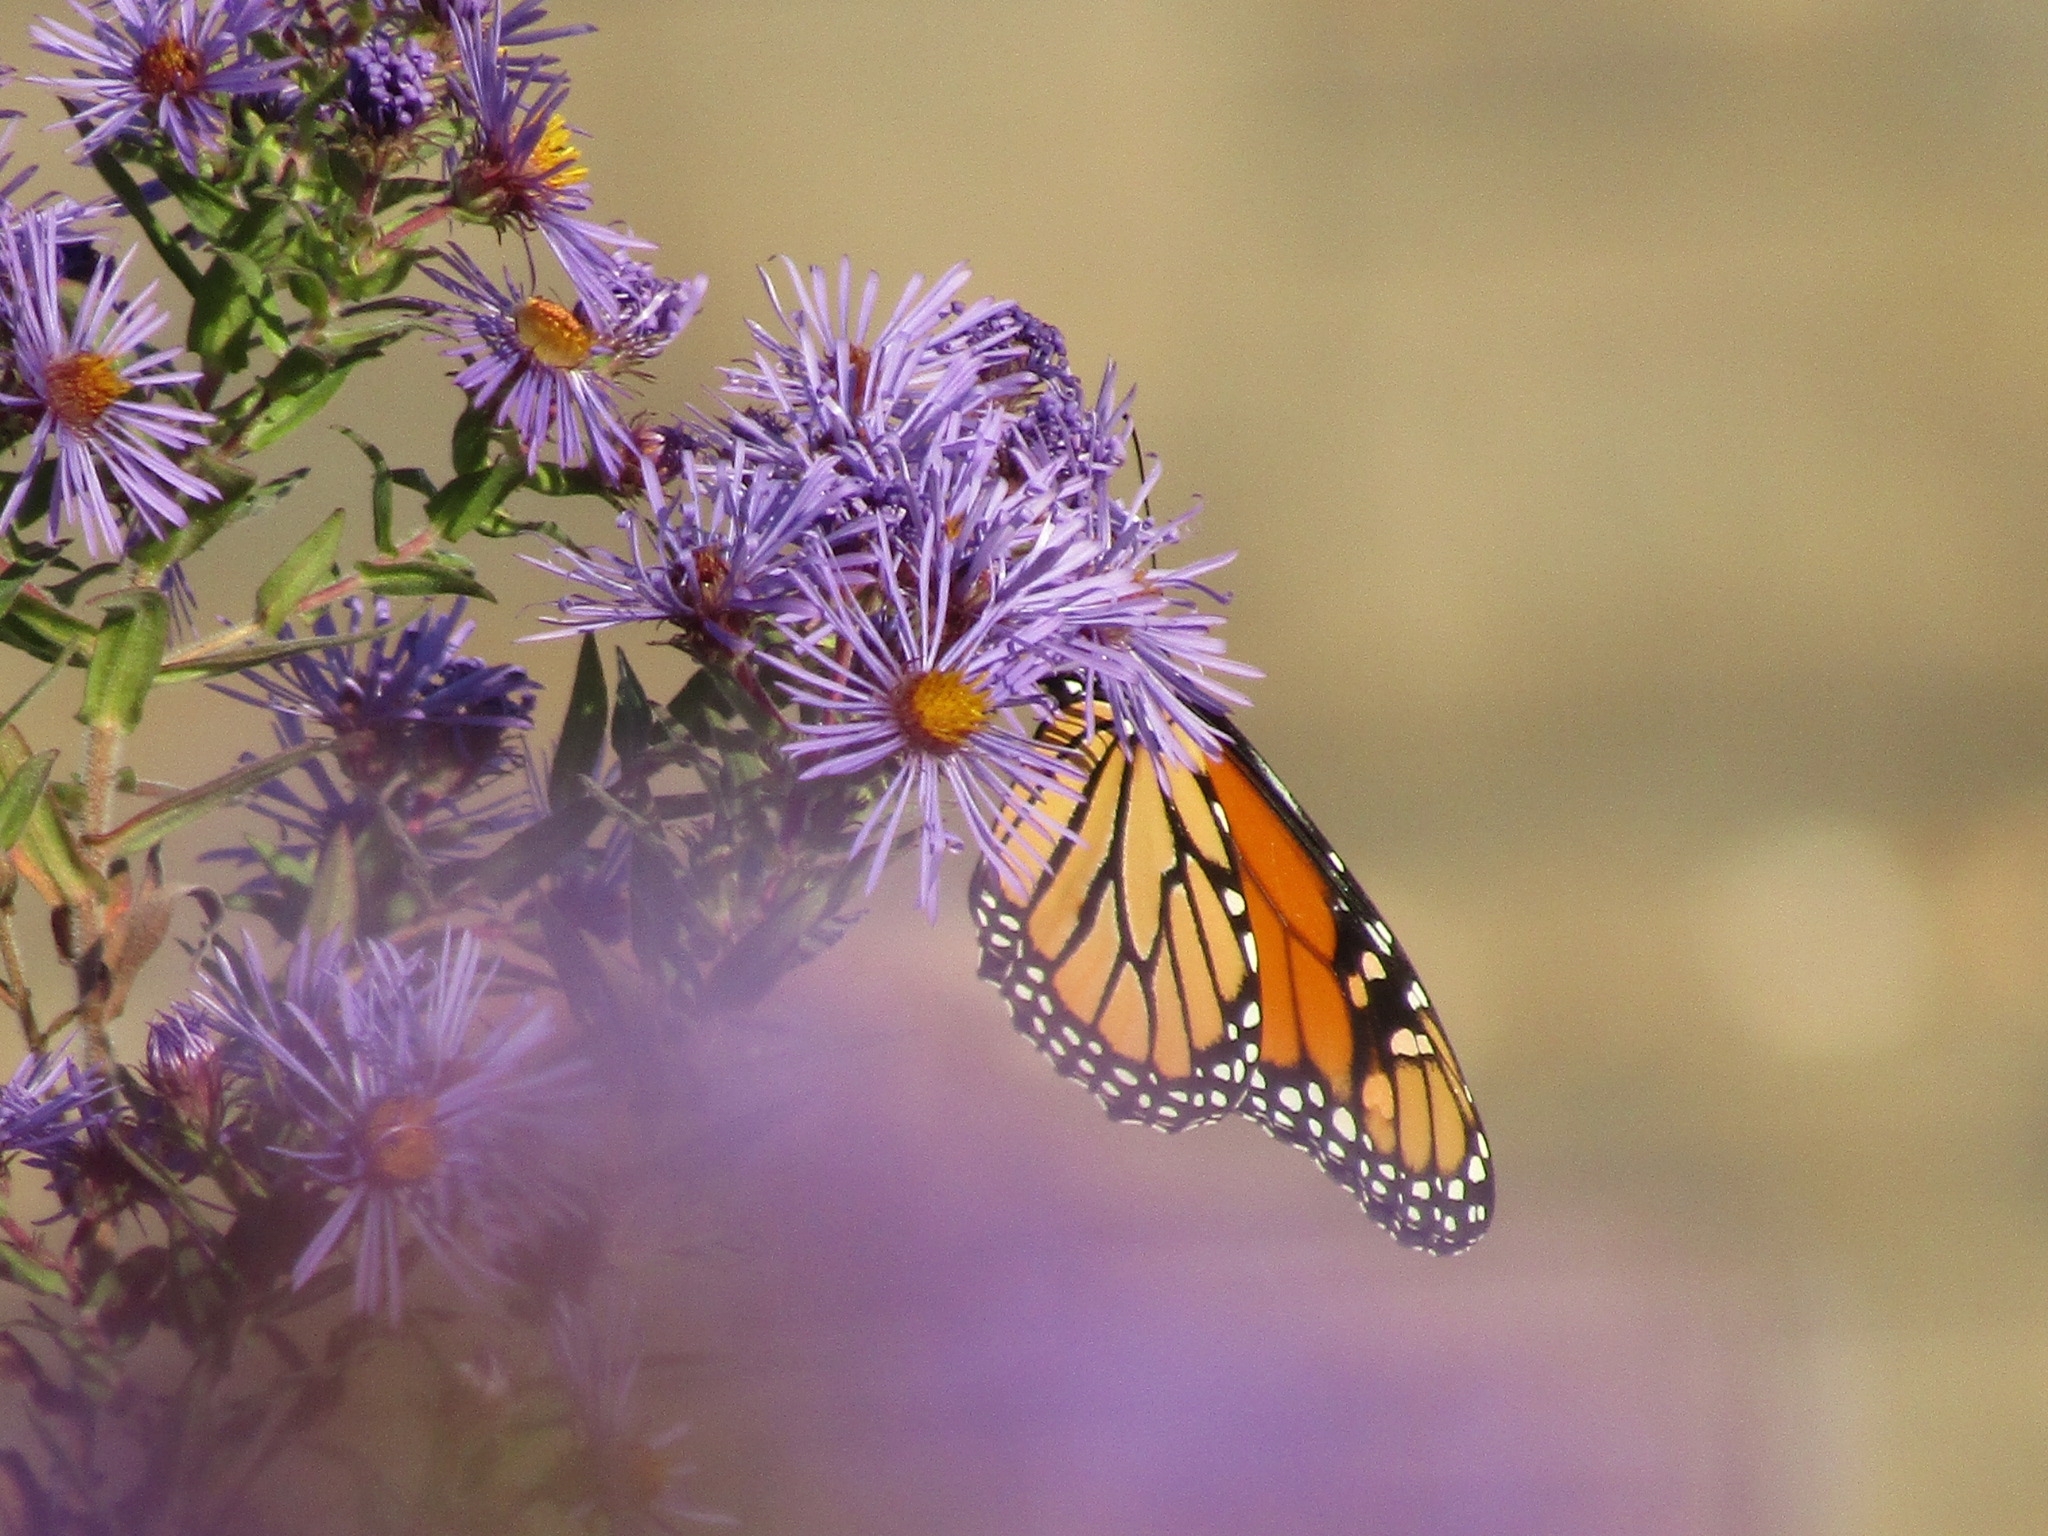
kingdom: Animalia
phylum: Arthropoda
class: Insecta
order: Lepidoptera
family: Nymphalidae
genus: Danaus
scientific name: Danaus plexippus
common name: Monarch
